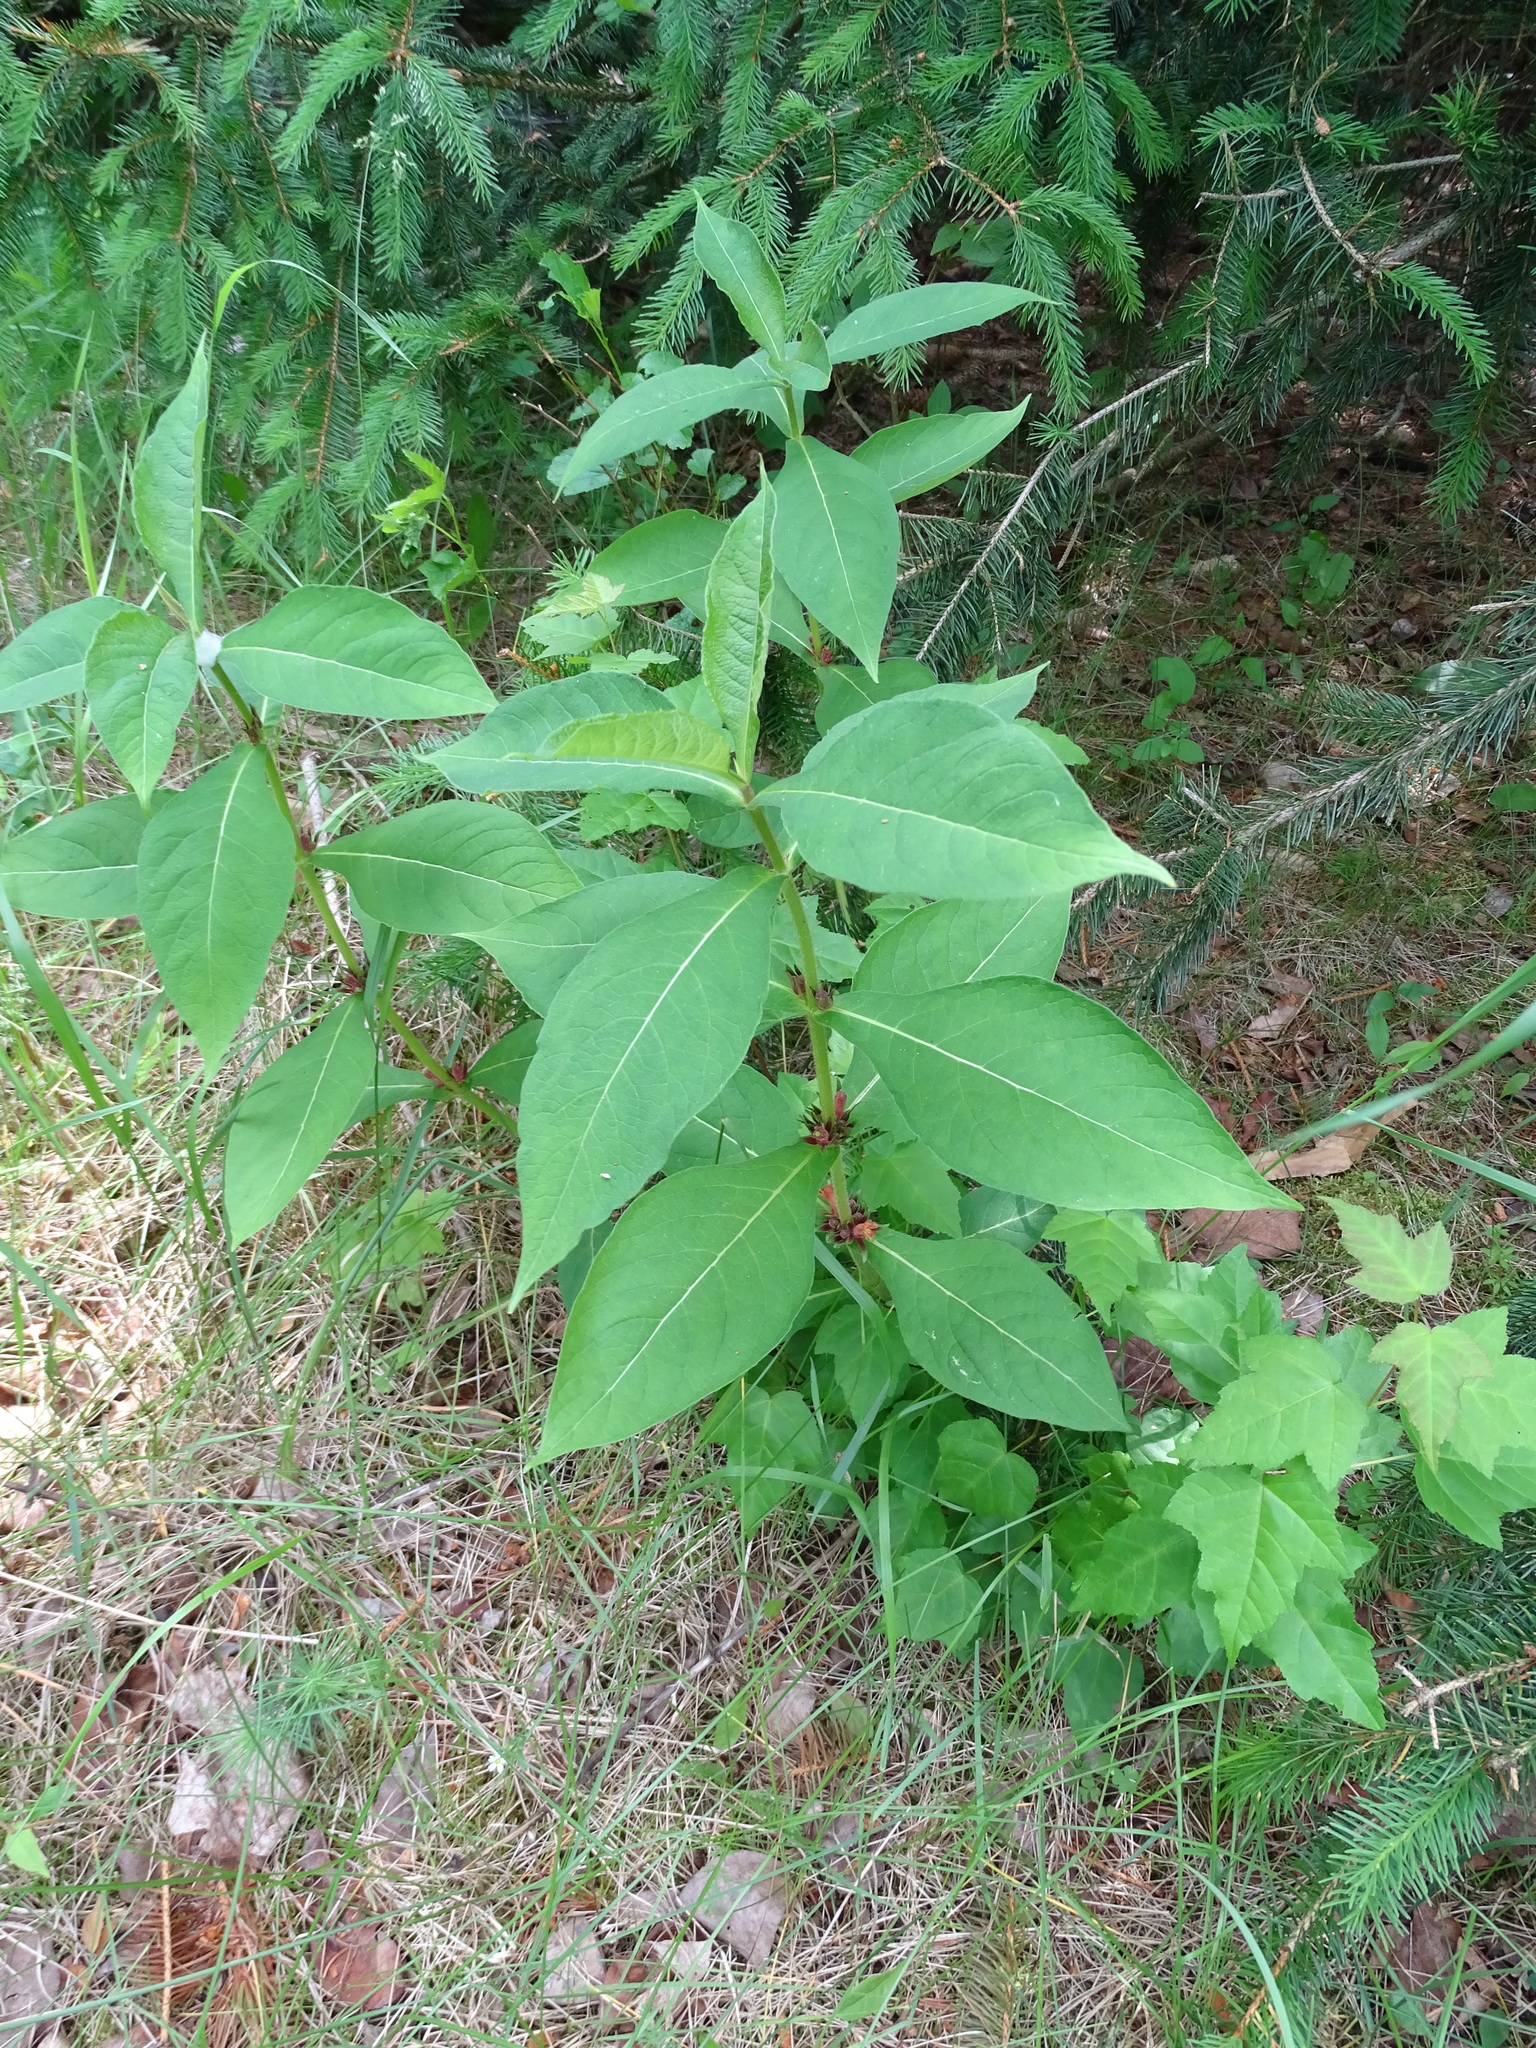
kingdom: Plantae
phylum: Tracheophyta
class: Magnoliopsida
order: Dipsacales
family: Caprifoliaceae
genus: Triosteum
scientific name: Triosteum aurantiacum
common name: Coffee tinker's-weed
